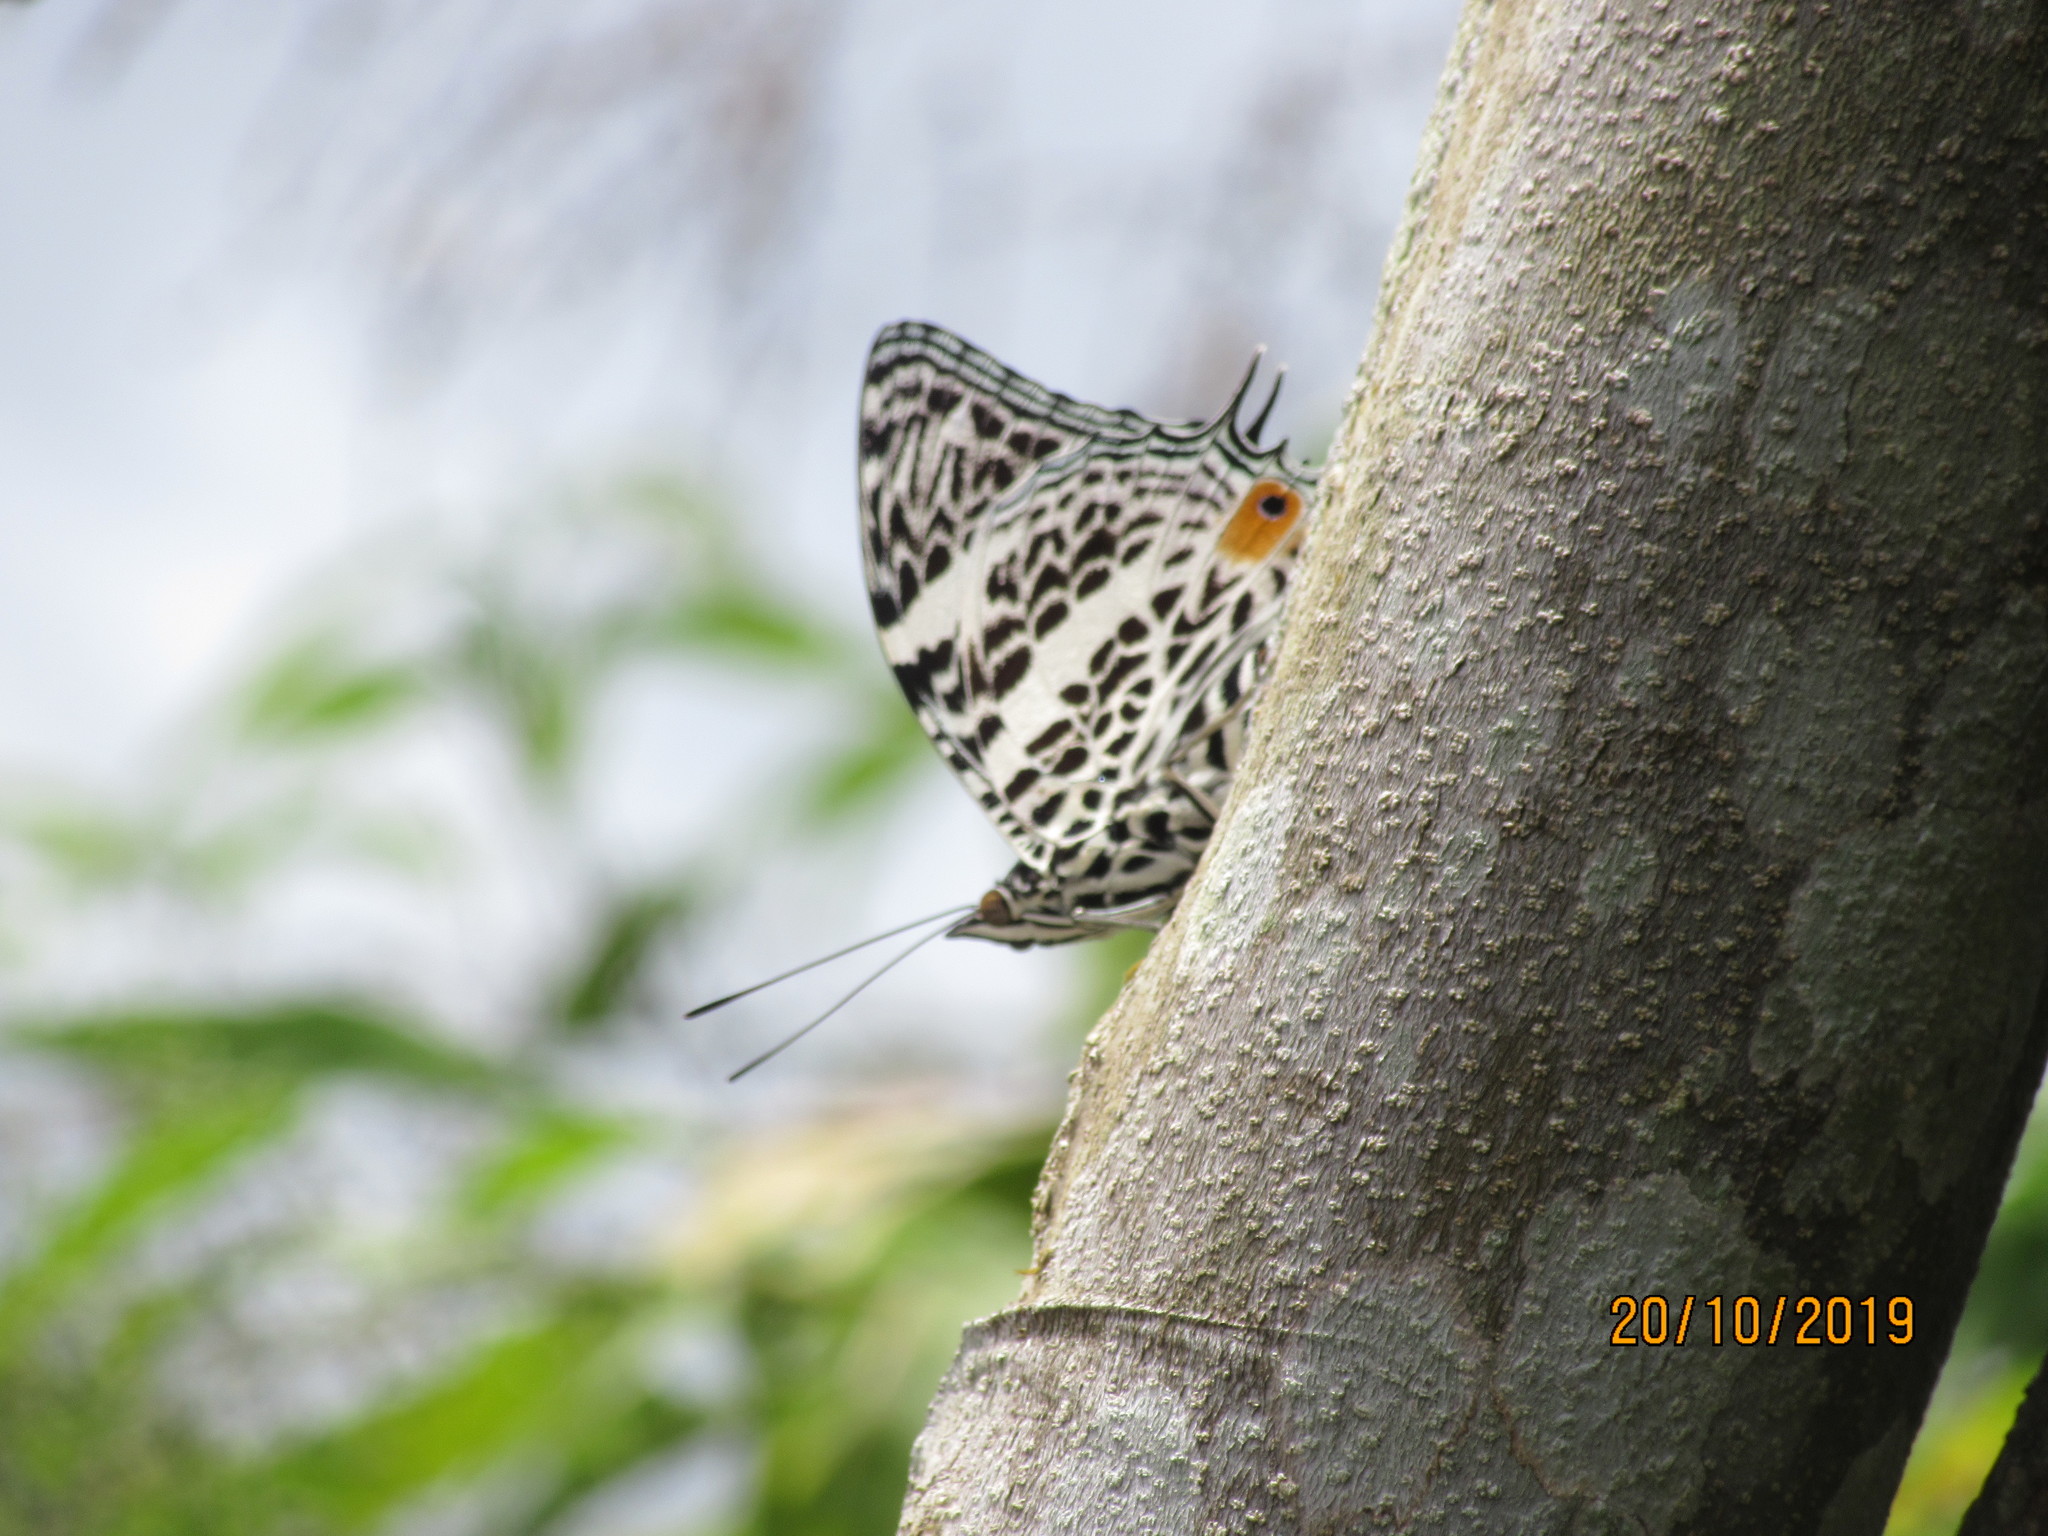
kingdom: Animalia
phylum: Arthropoda
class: Insecta
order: Lepidoptera
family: Nymphalidae
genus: Baeotus
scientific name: Baeotus deucalion
